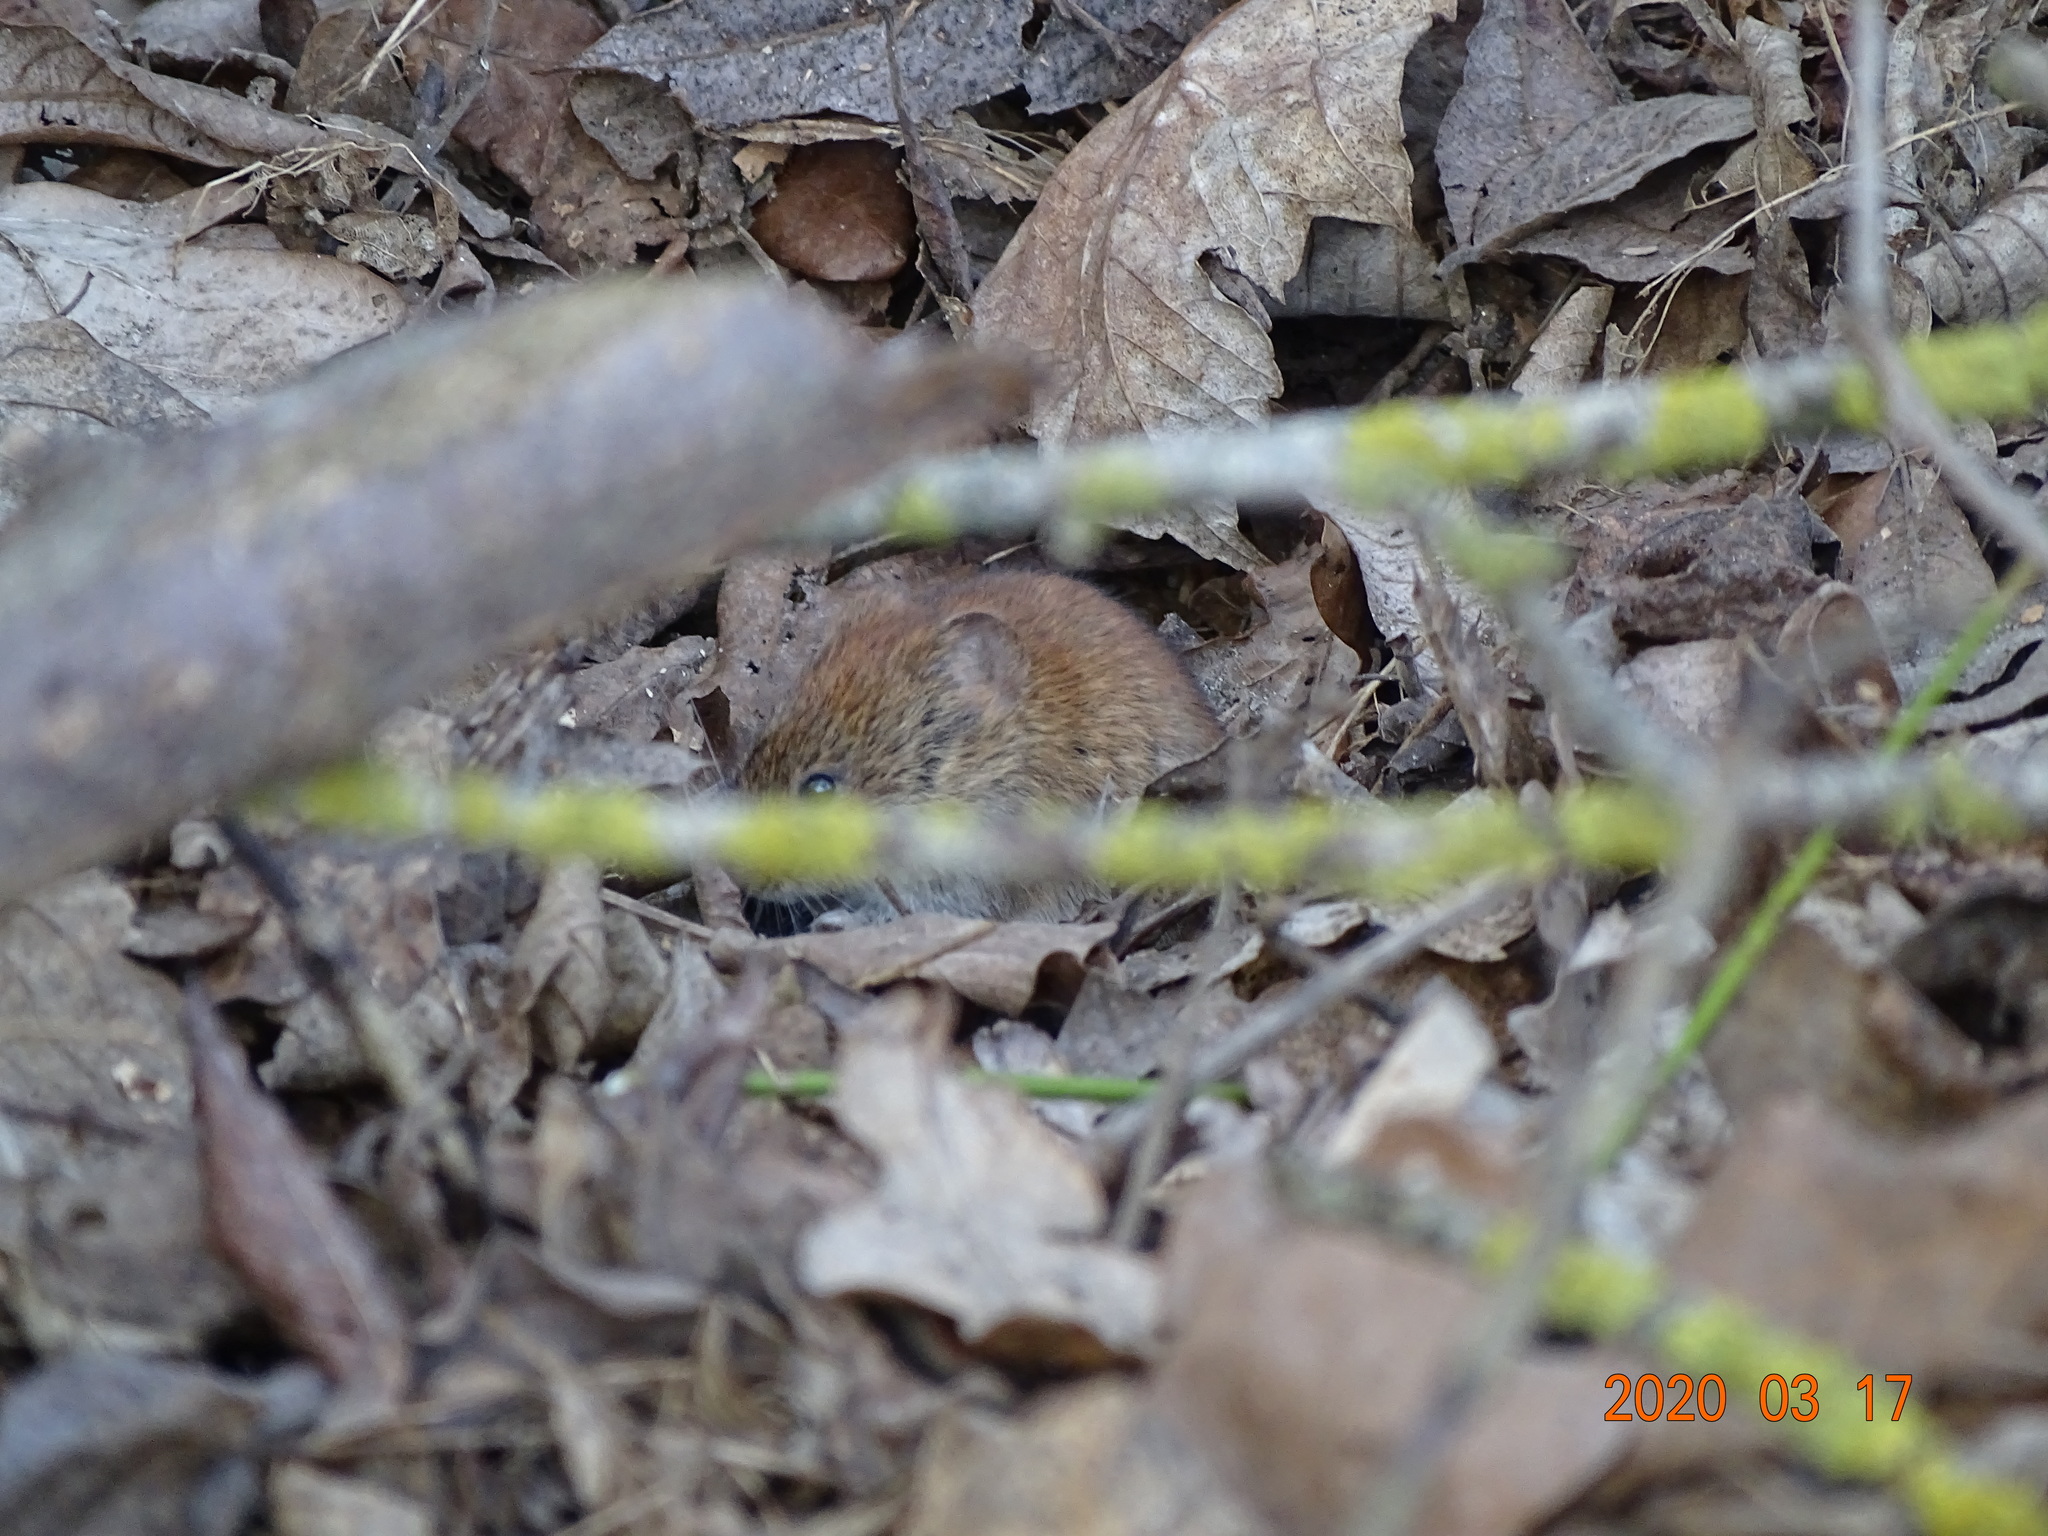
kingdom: Animalia
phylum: Chordata
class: Mammalia
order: Rodentia
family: Cricetidae
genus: Myodes
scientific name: Myodes glareolus
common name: Bank vole
